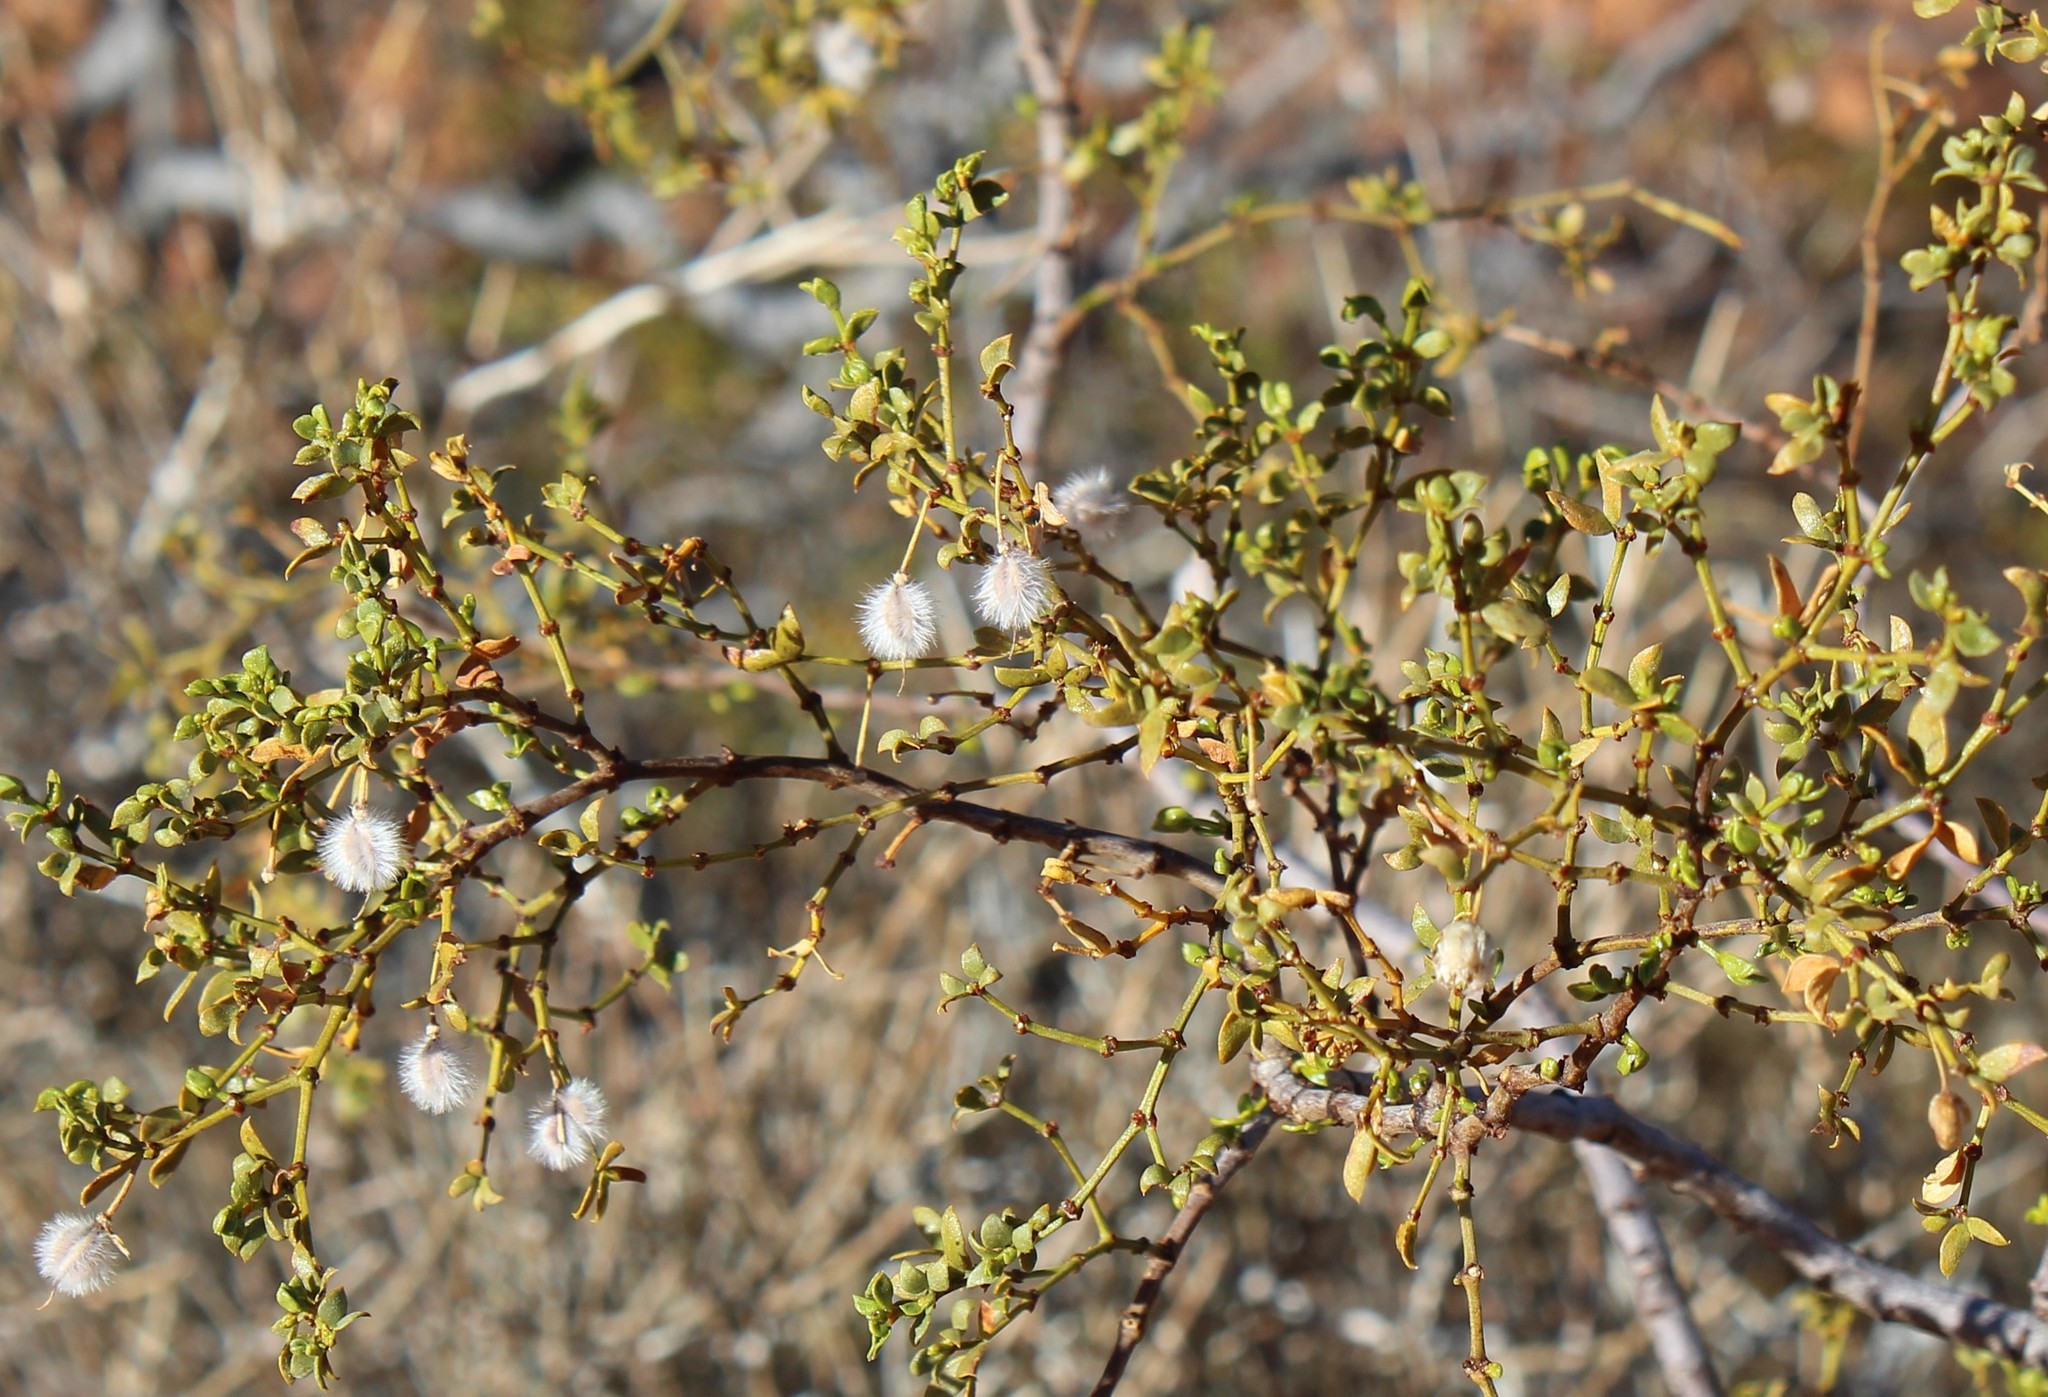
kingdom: Plantae
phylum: Tracheophyta
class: Magnoliopsida
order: Zygophyllales
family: Zygophyllaceae
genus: Larrea
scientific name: Larrea tridentata
